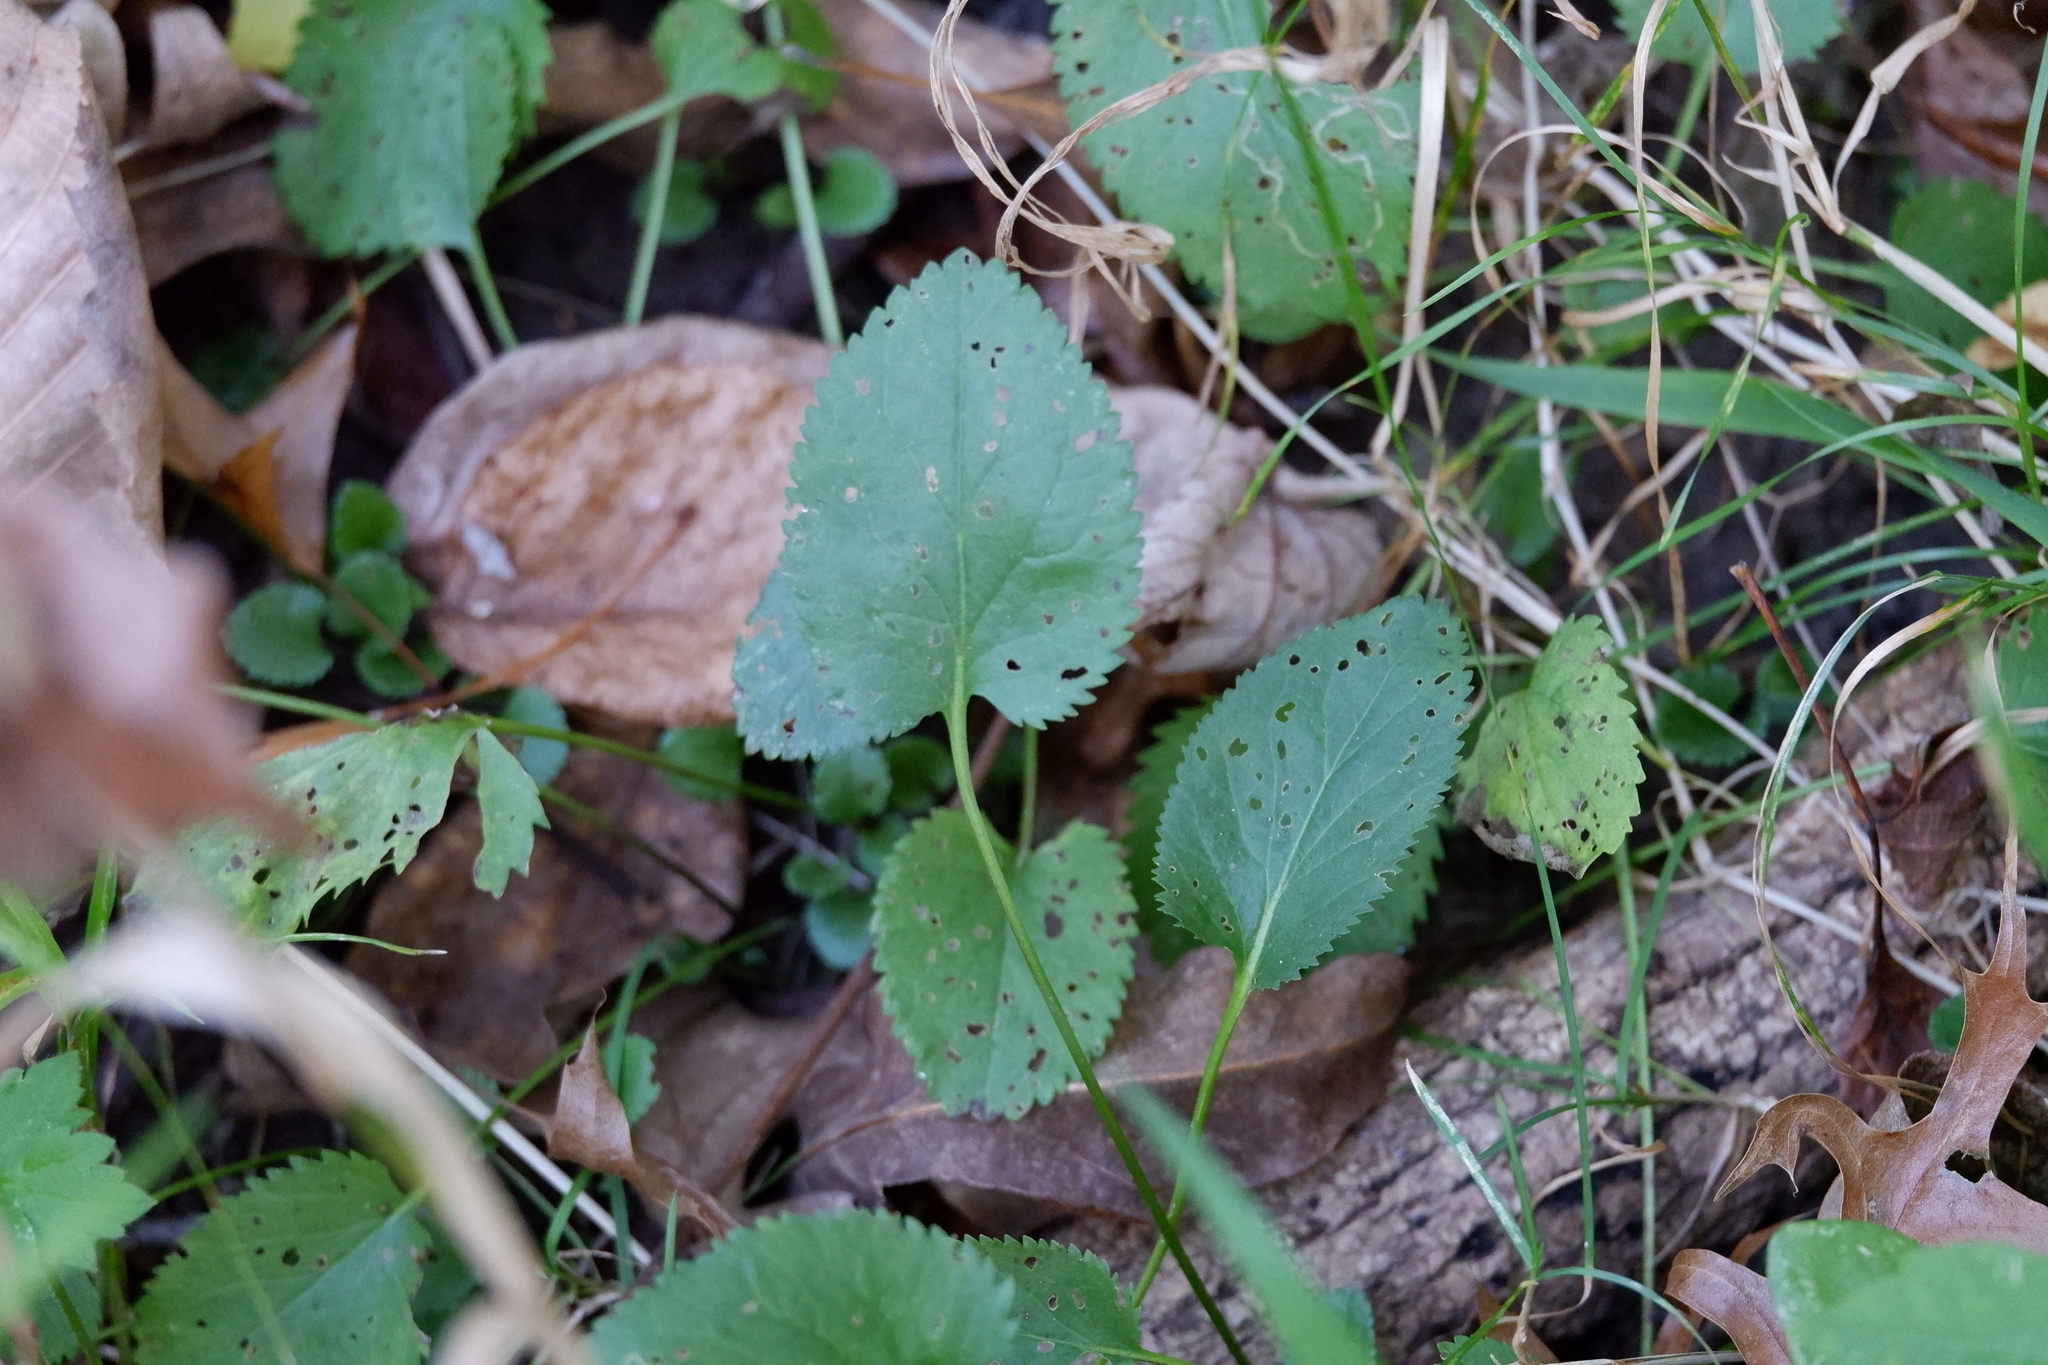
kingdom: Plantae
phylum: Tracheophyta
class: Magnoliopsida
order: Asterales
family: Asteraceae
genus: Packera
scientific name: Packera aurea
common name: Golden groundsel
